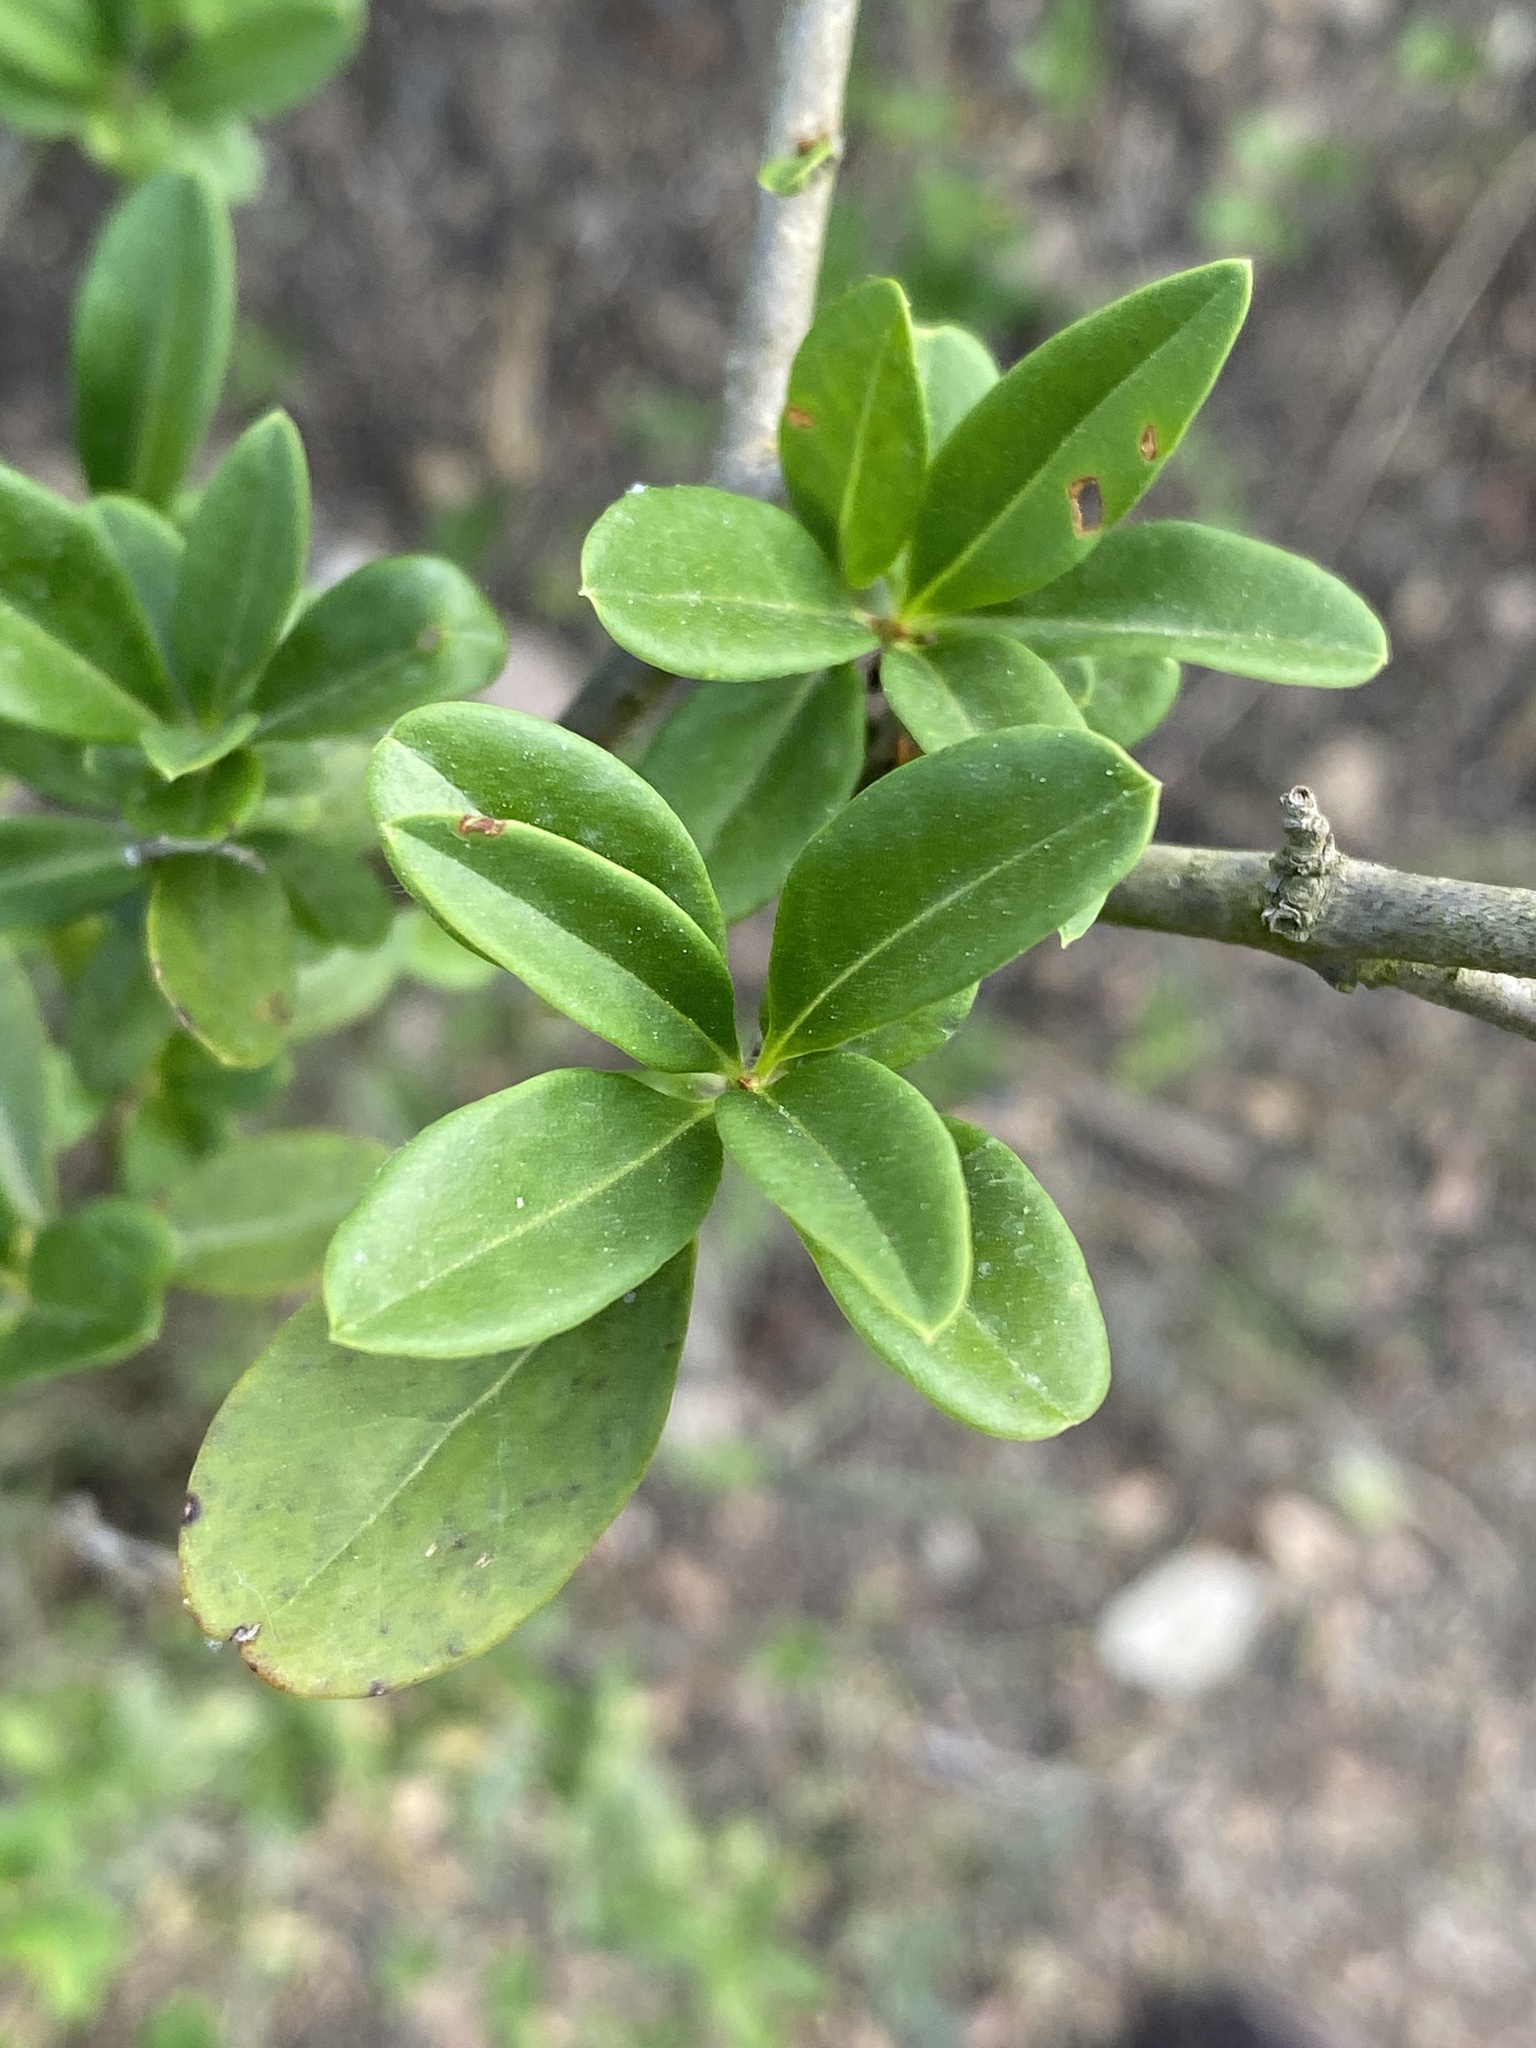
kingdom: Plantae
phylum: Tracheophyta
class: Magnoliopsida
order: Lamiales
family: Oleaceae
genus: Ligustrum
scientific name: Ligustrum vulgare
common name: Wild privet
